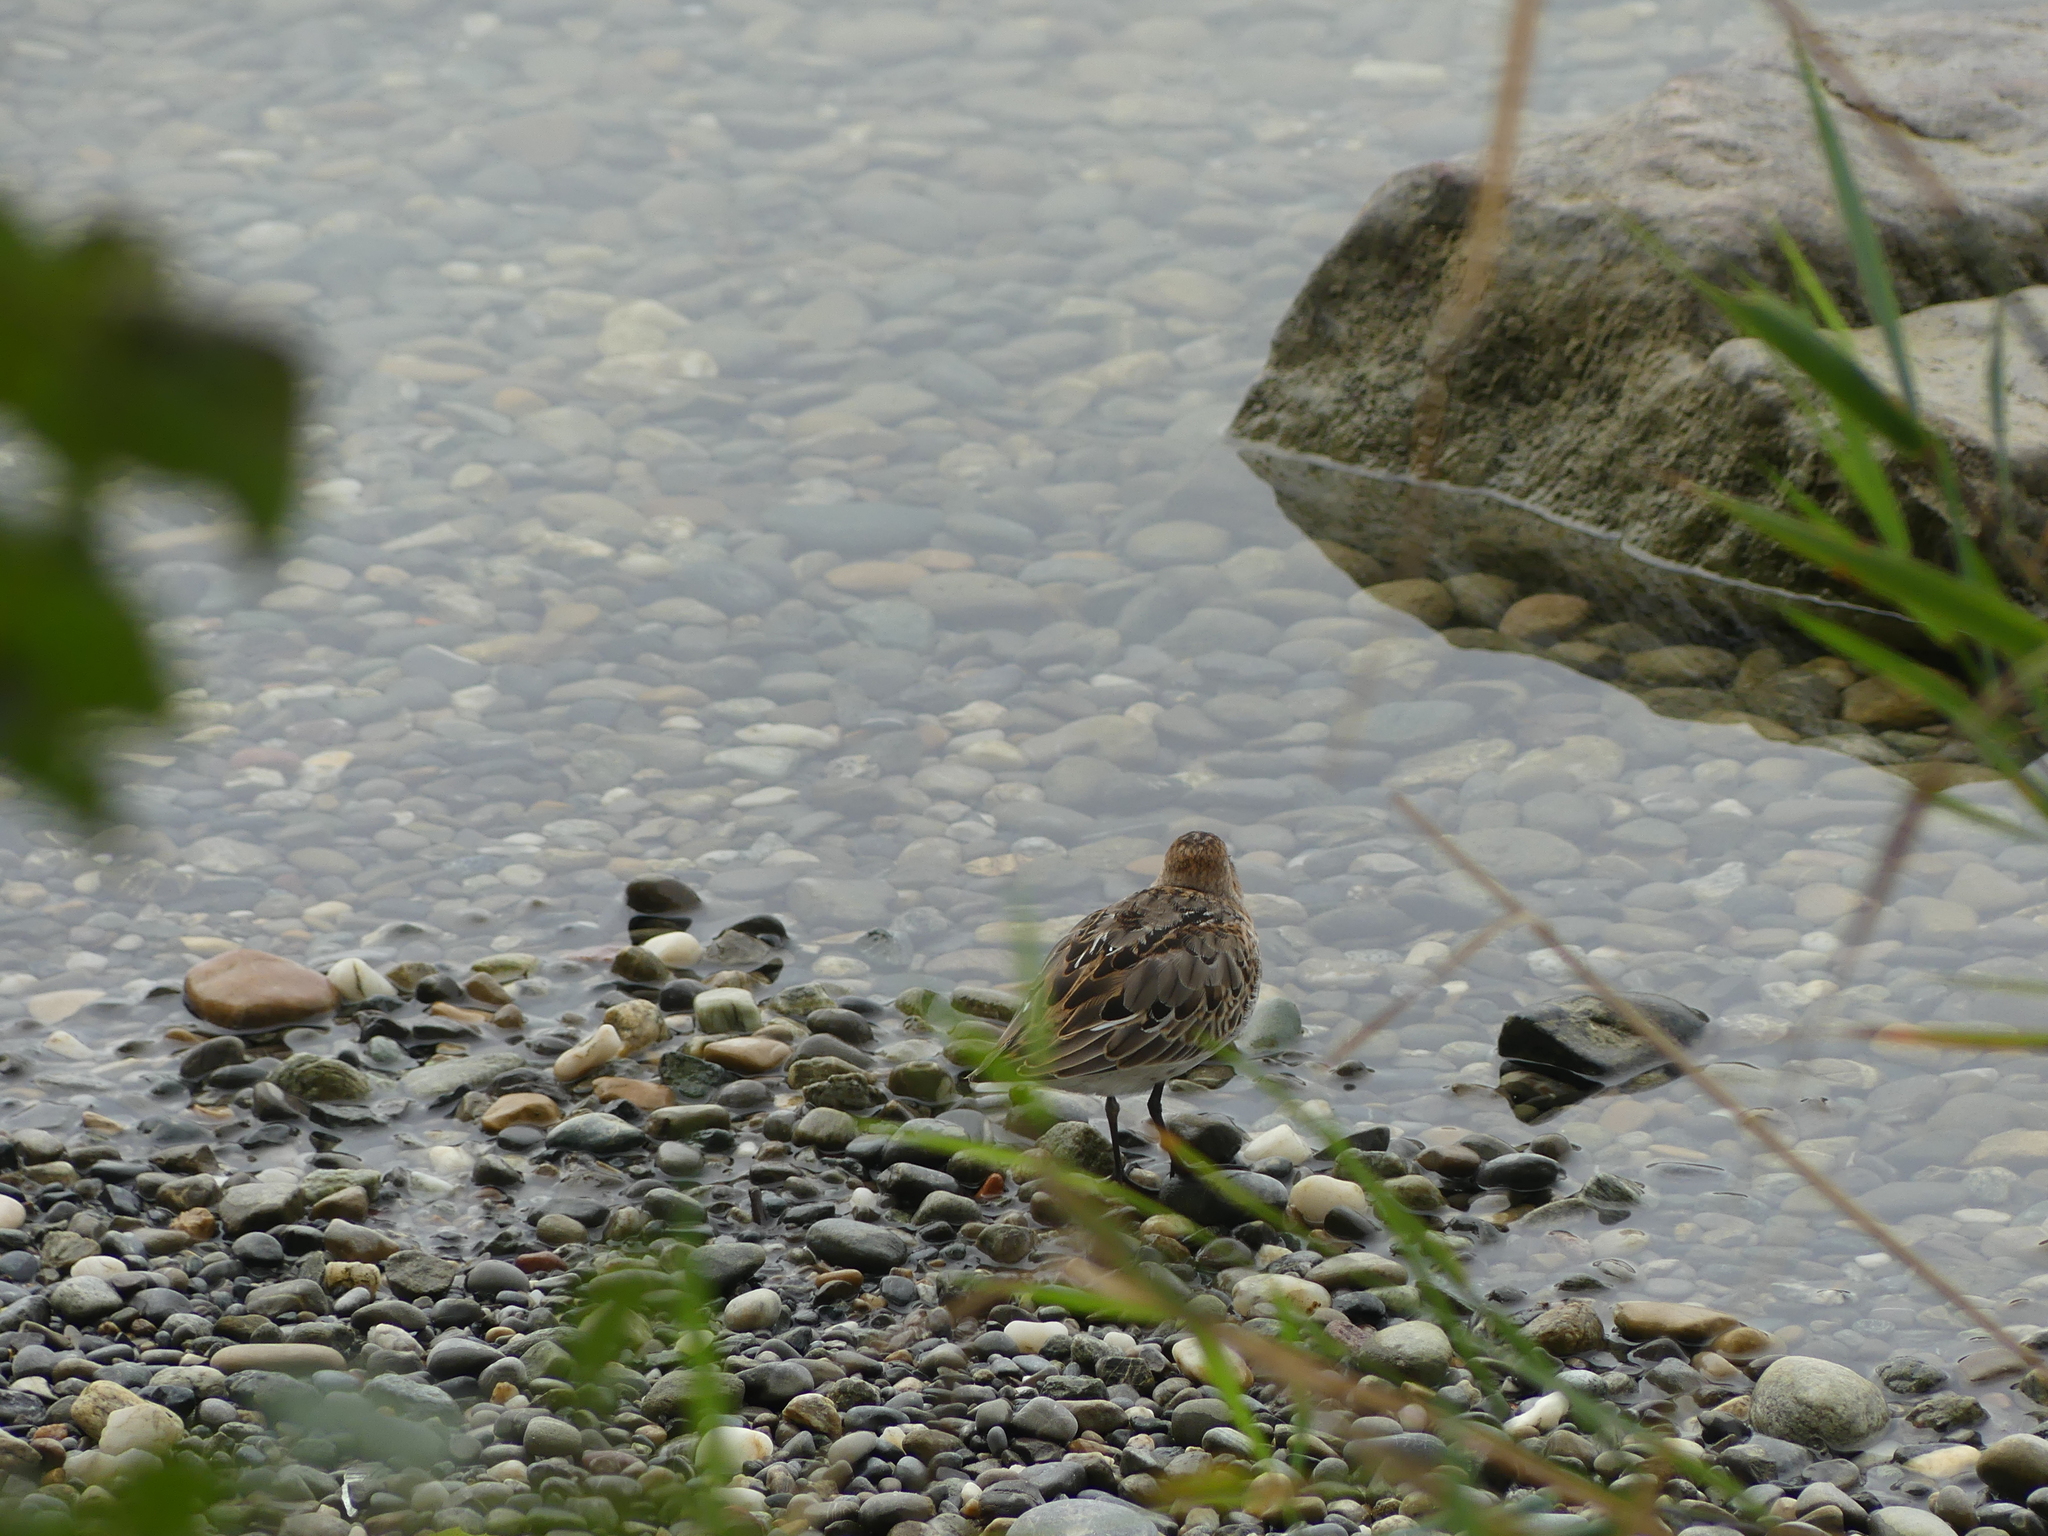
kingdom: Animalia
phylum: Chordata
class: Aves
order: Charadriiformes
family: Scolopacidae
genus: Calidris
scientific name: Calidris alpina
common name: Dunlin
